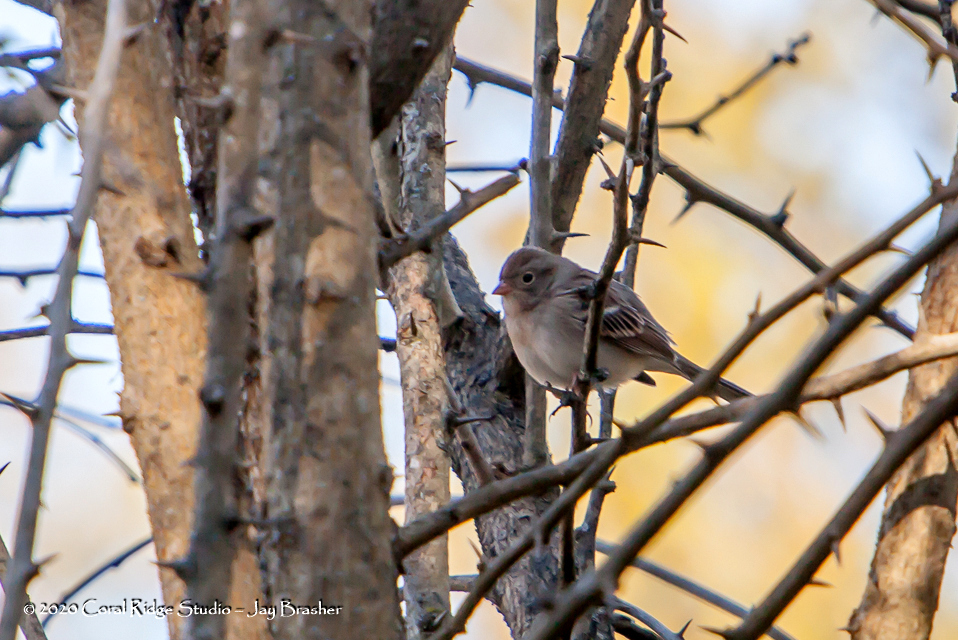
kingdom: Animalia
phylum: Chordata
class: Aves
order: Passeriformes
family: Passerellidae
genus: Spizella
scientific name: Spizella pusilla
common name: Field sparrow
